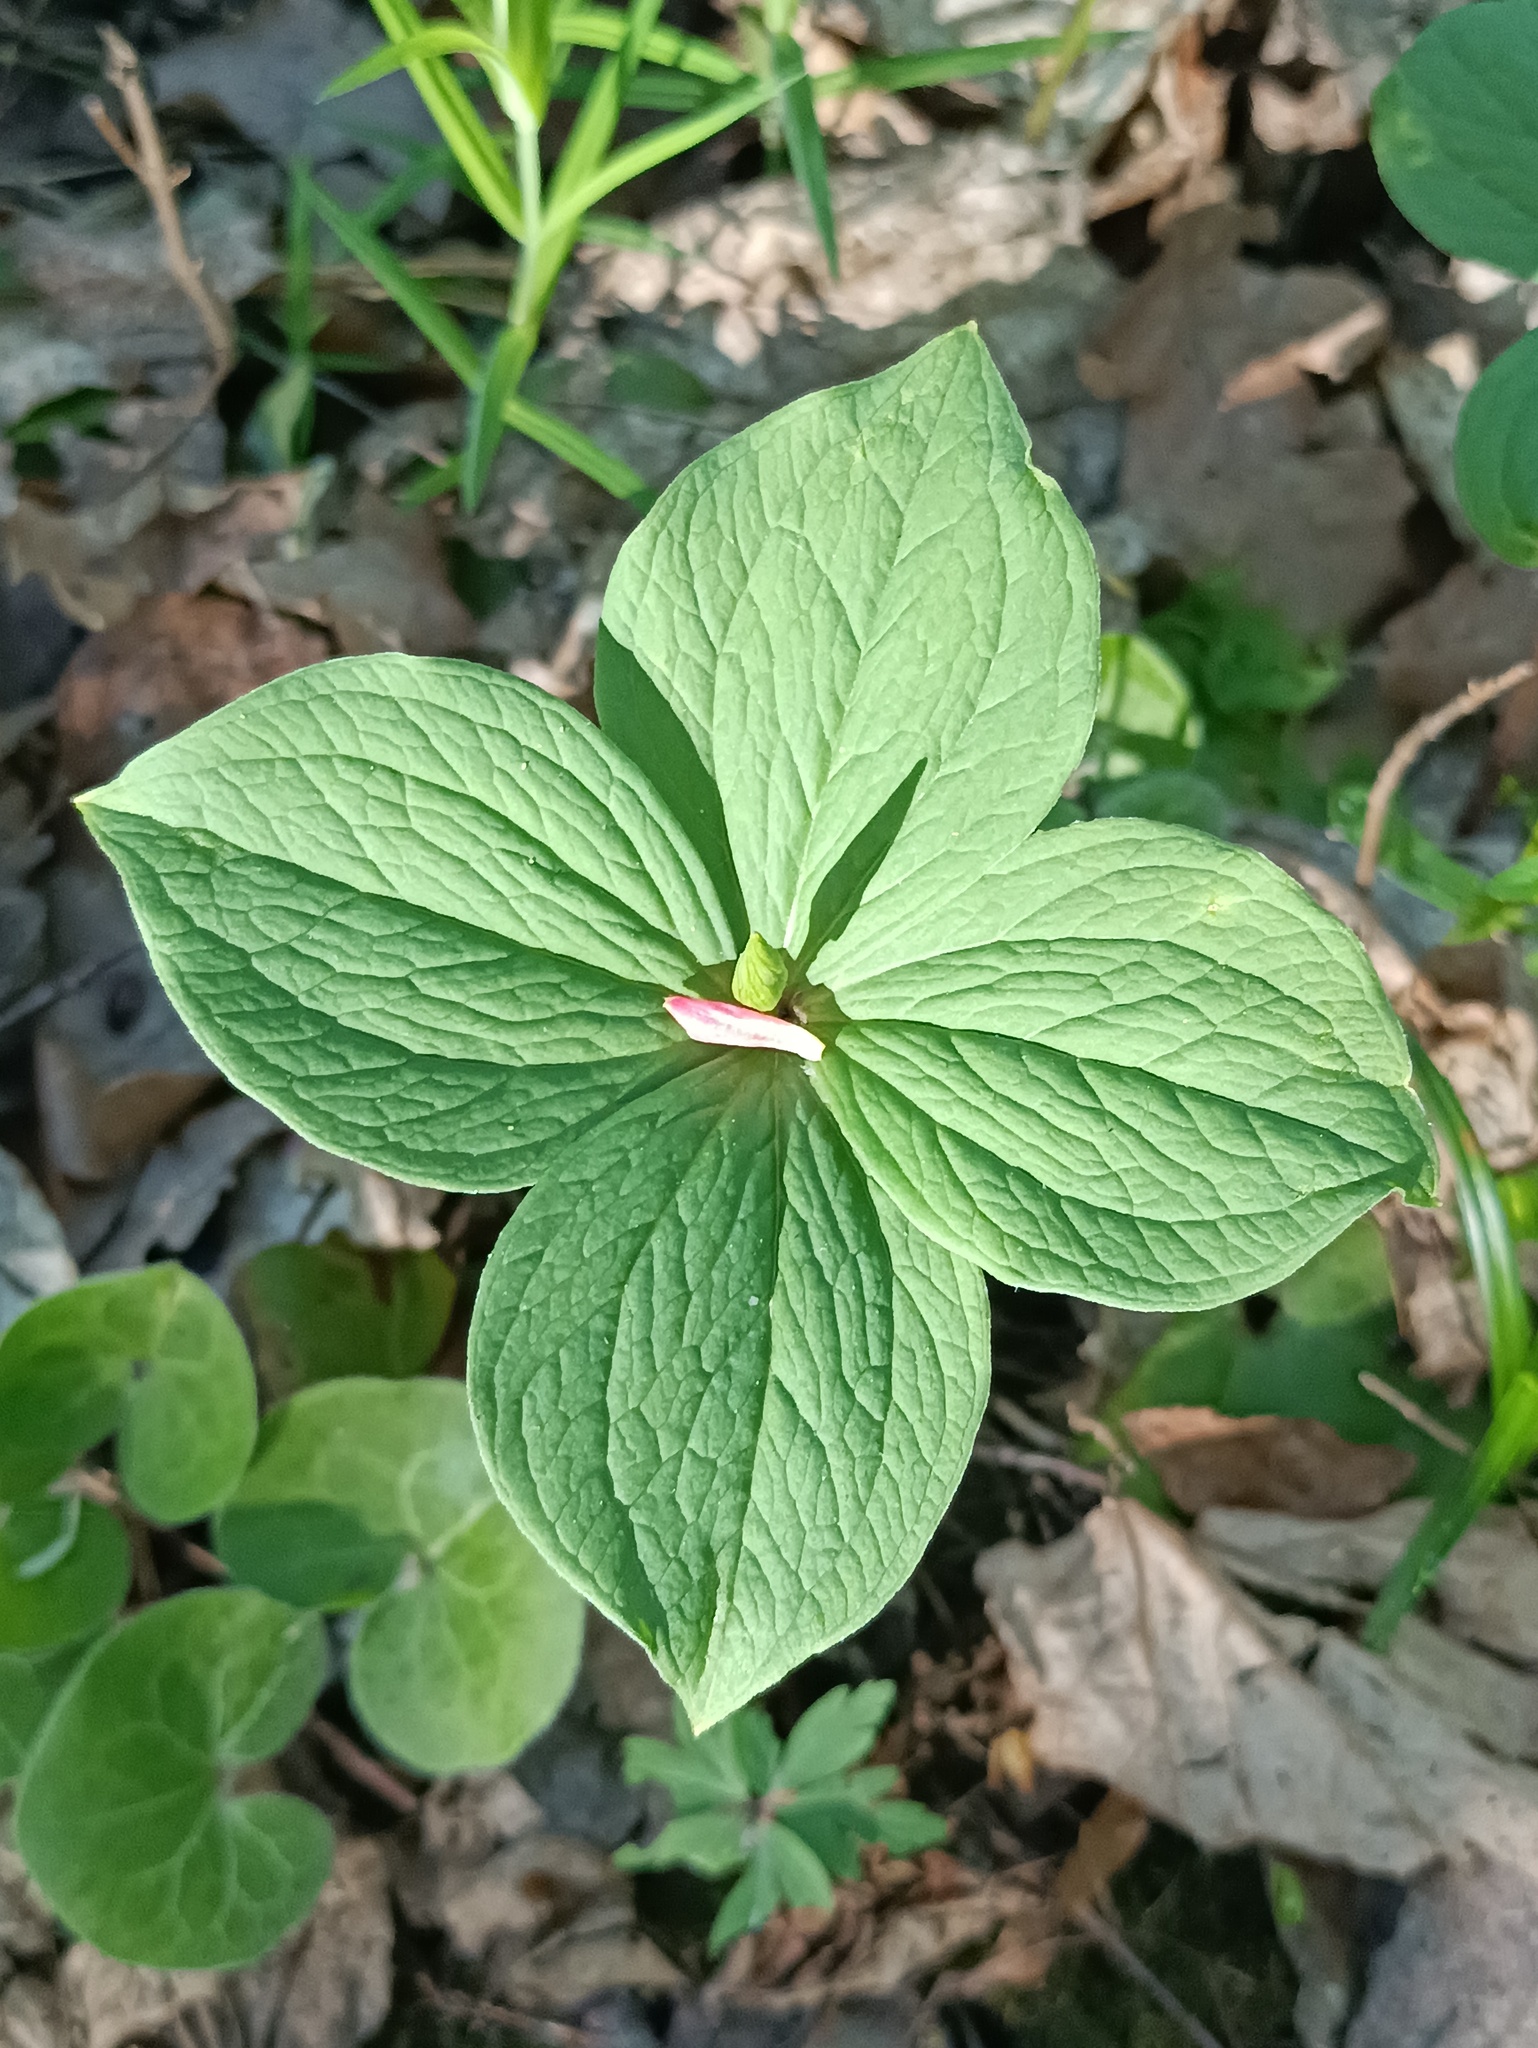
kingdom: Plantae
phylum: Tracheophyta
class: Liliopsida
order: Liliales
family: Melanthiaceae
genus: Paris
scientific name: Paris quadrifolia
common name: Herb-paris
